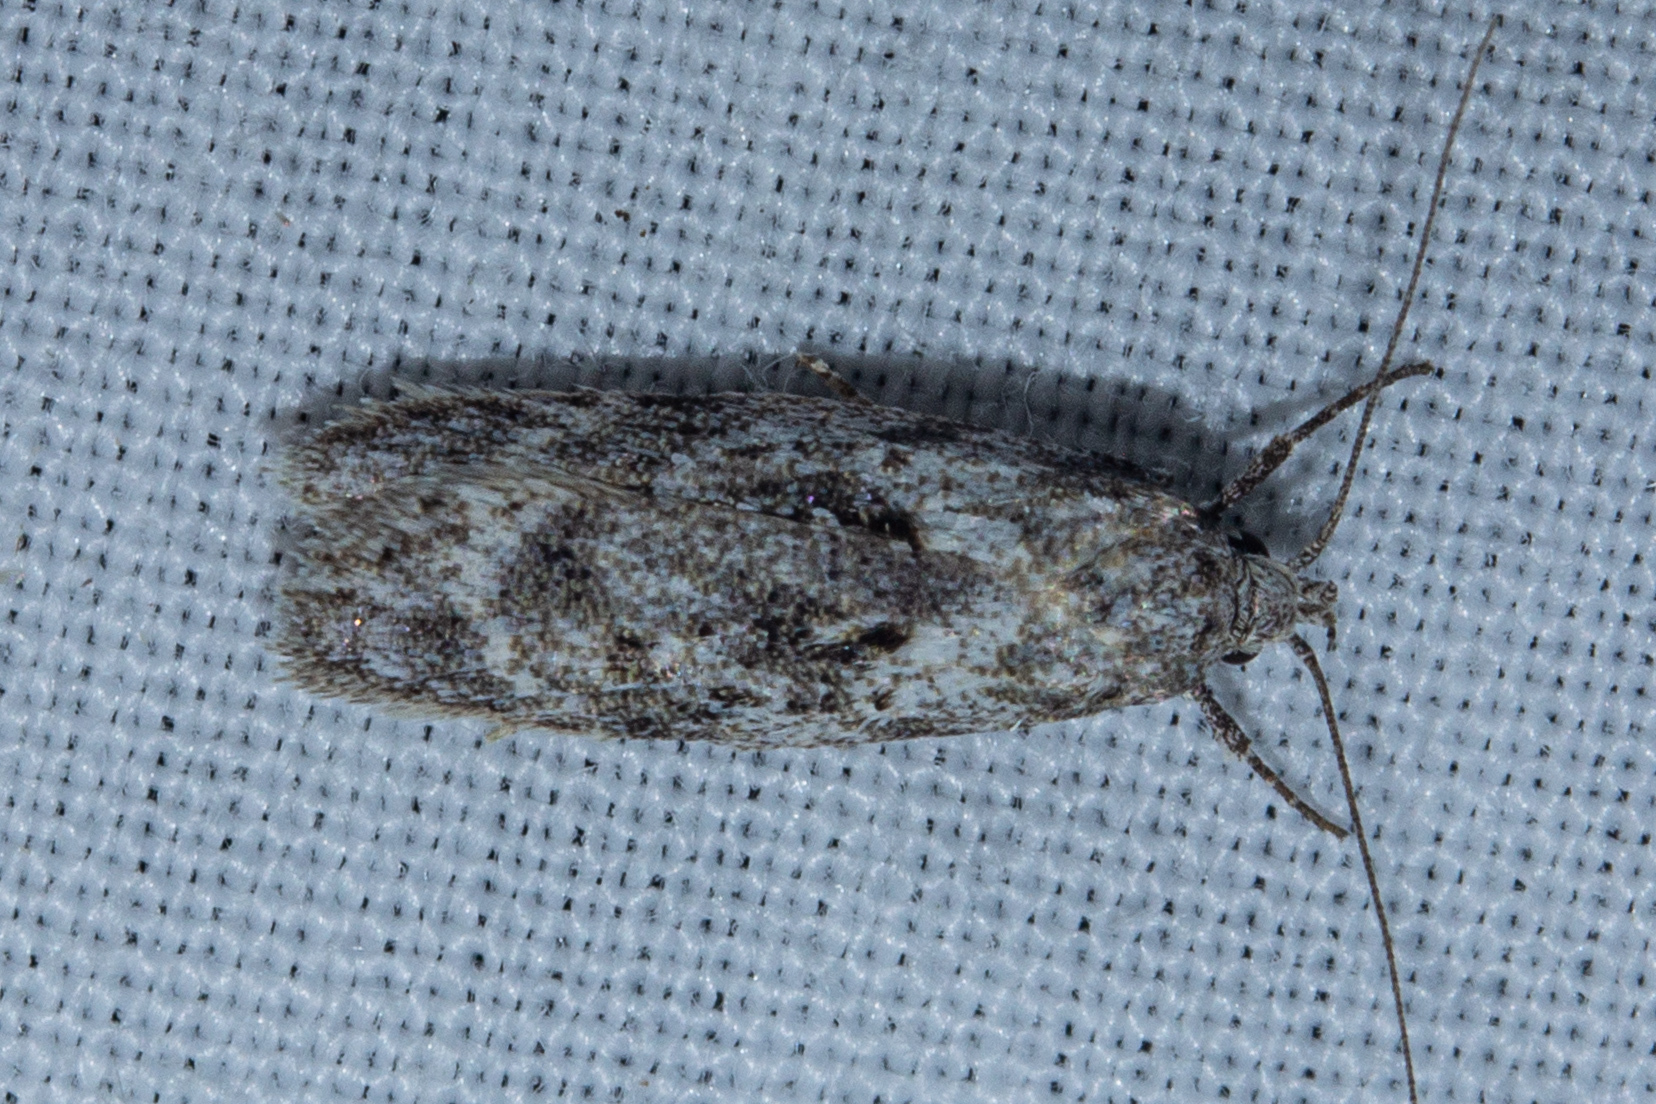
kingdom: Animalia
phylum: Arthropoda
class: Insecta
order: Lepidoptera
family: Oecophoridae
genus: Izatha
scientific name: Izatha convulsella
